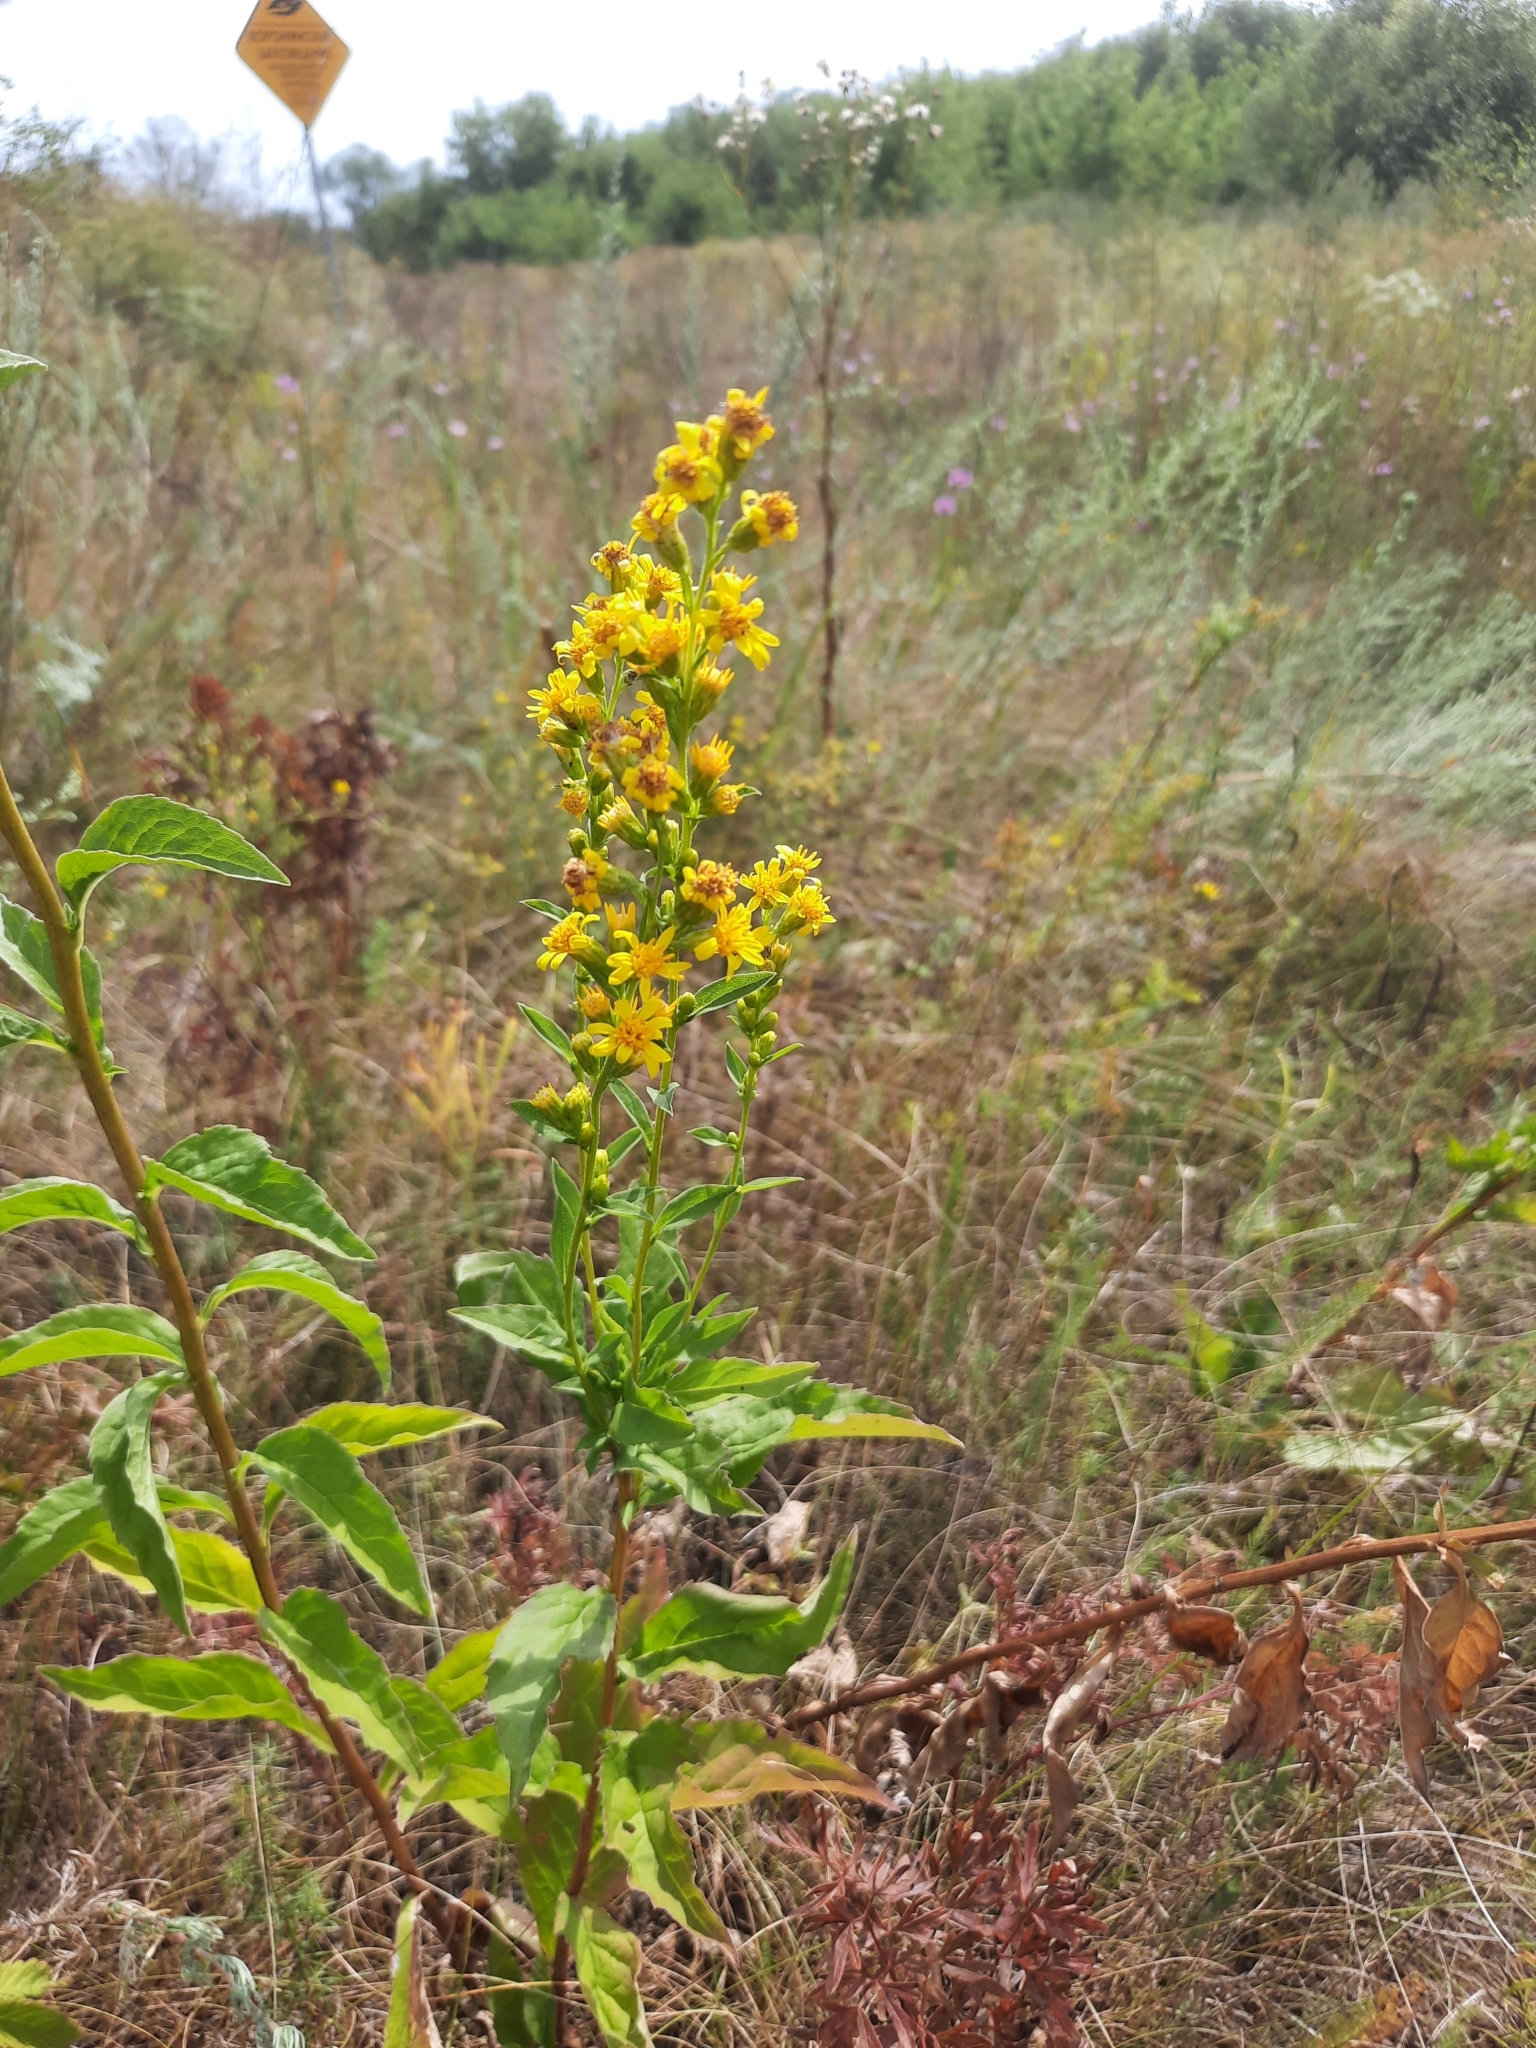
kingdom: Plantae
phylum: Tracheophyta
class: Magnoliopsida
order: Asterales
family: Asteraceae
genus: Solidago
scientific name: Solidago virgaurea
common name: Goldenrod
